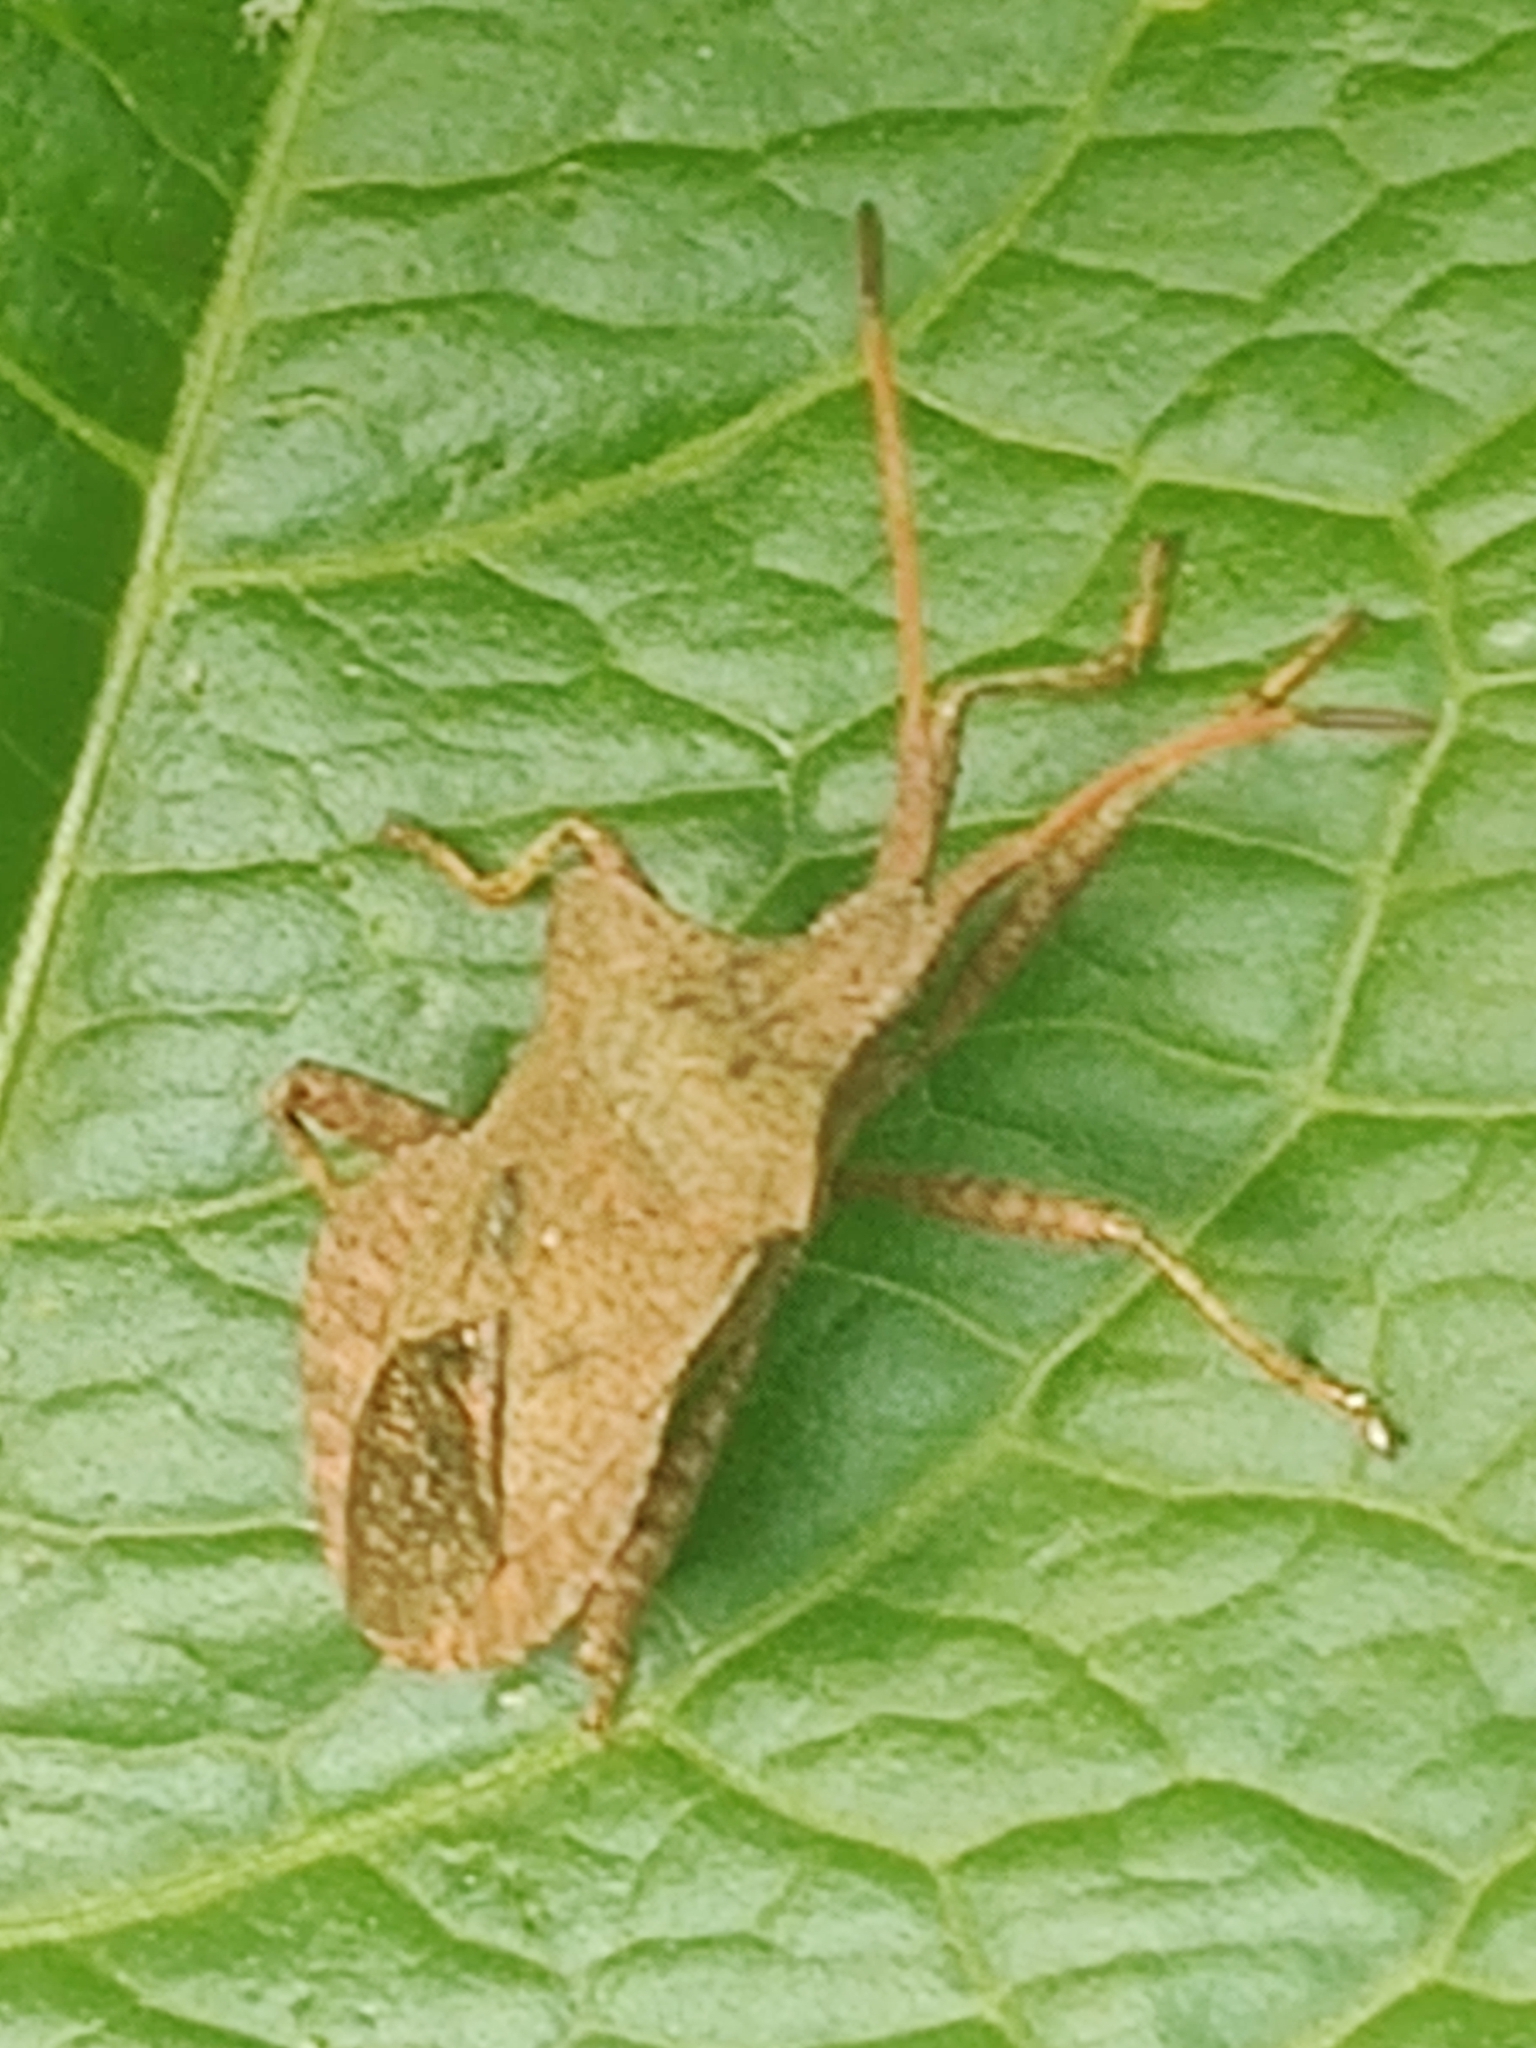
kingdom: Animalia
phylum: Arthropoda
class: Insecta
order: Hemiptera
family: Coreidae
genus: Coreus
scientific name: Coreus marginatus
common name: Dock bug
